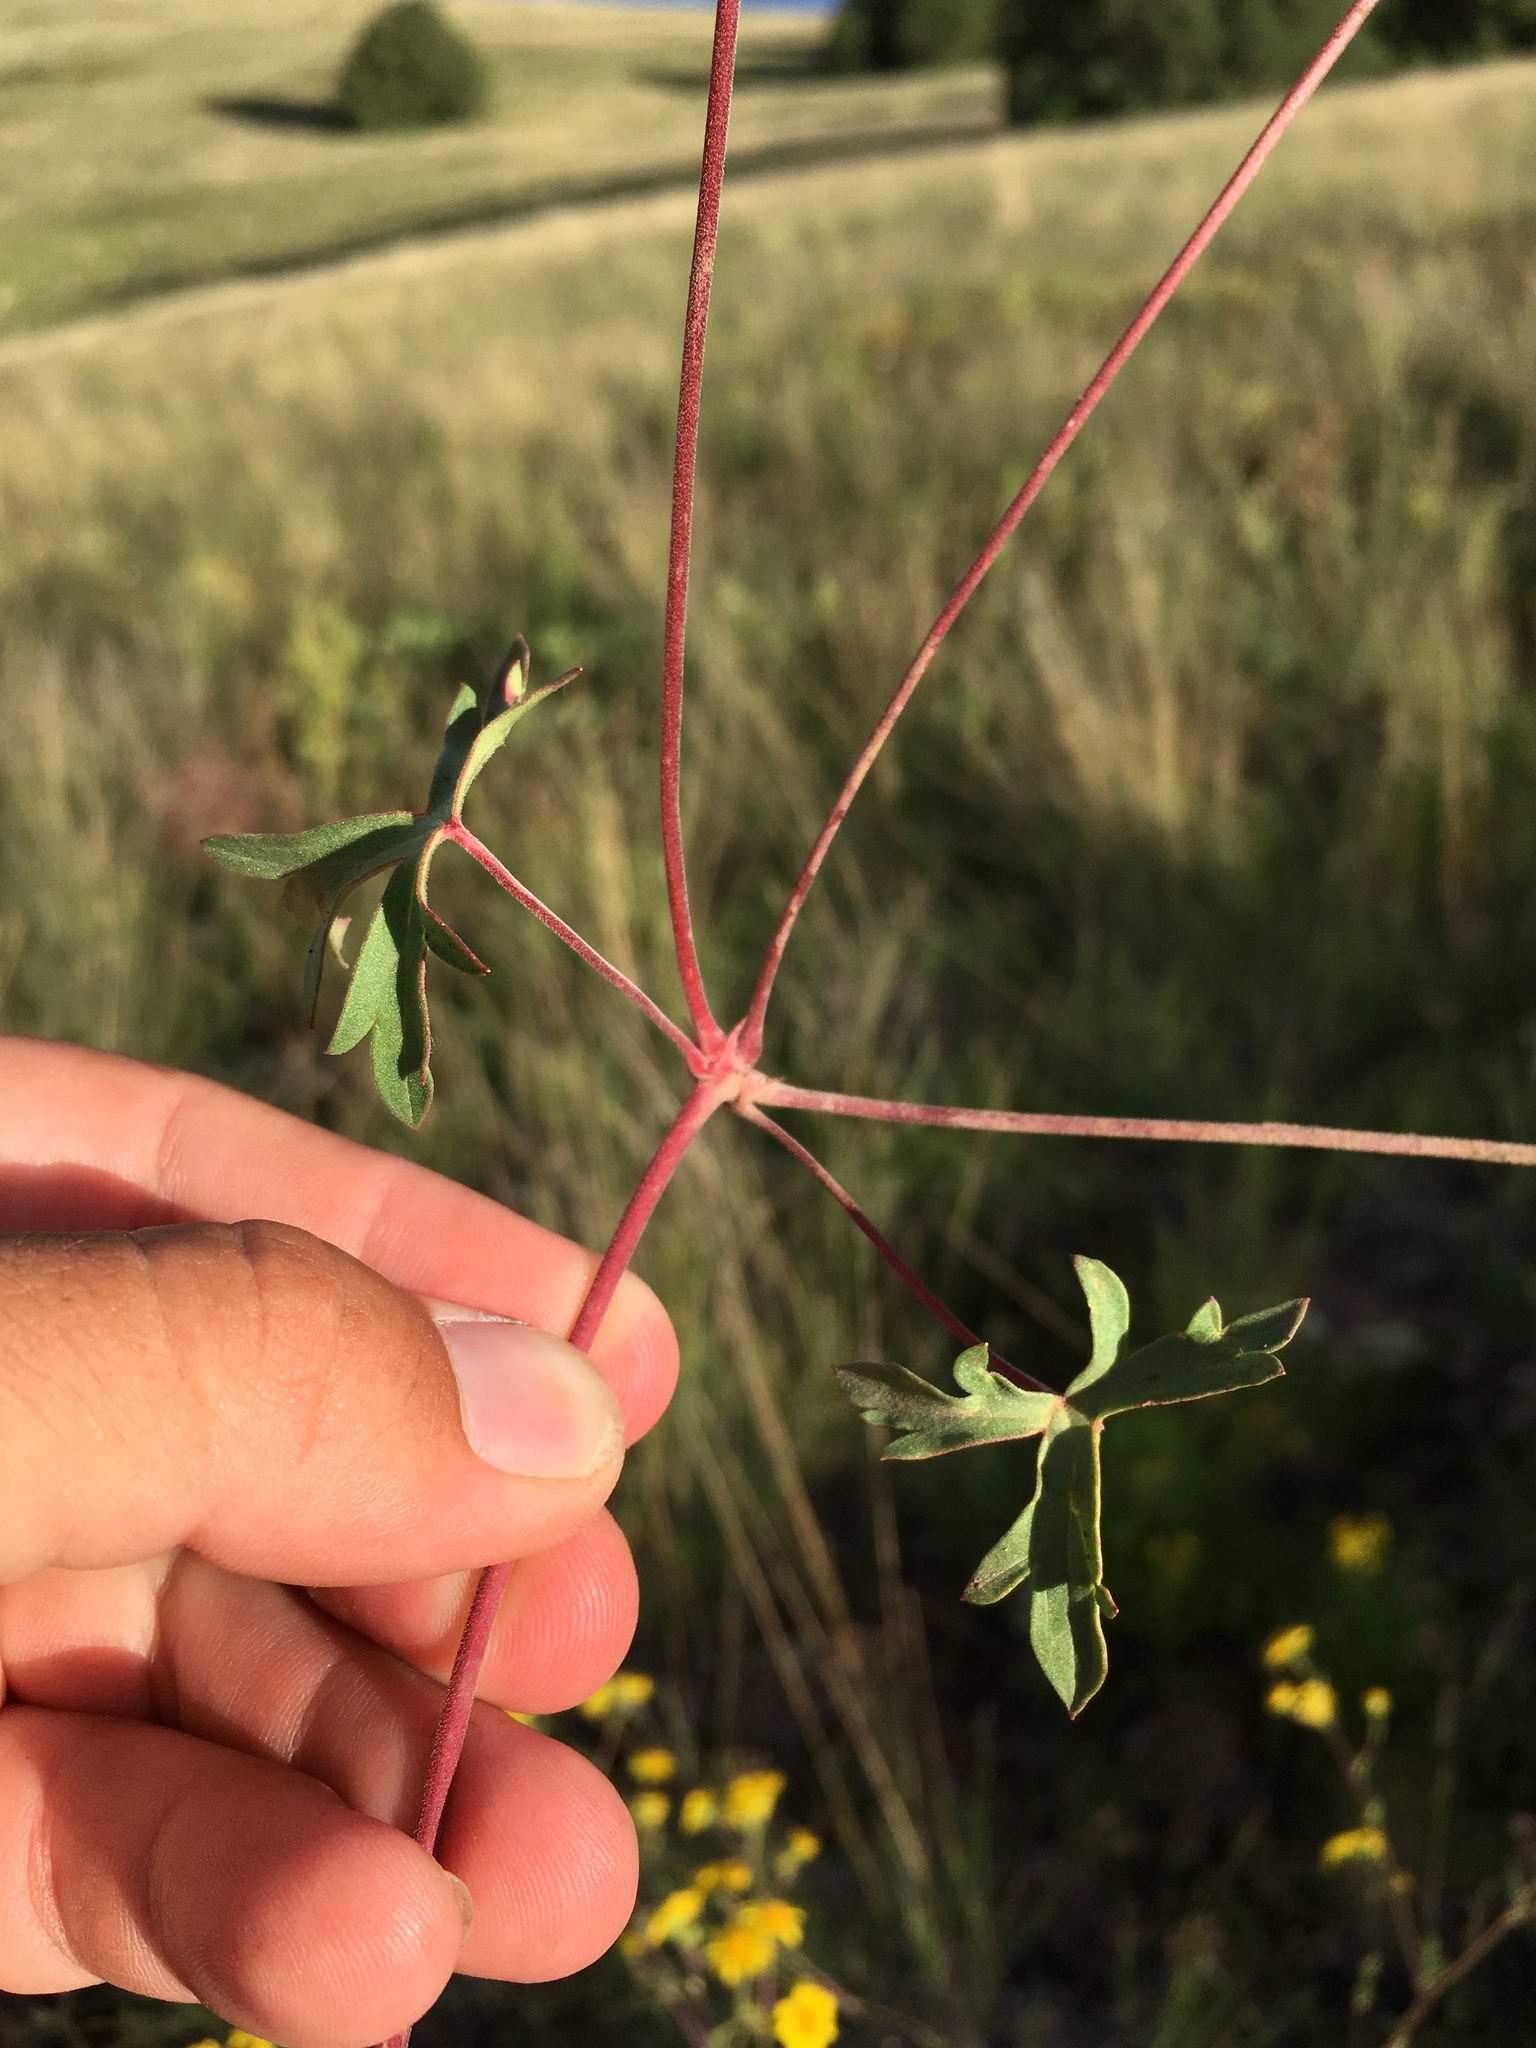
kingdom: Plantae
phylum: Tracheophyta
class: Magnoliopsida
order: Geraniales
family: Geraniaceae
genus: Geranium
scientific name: Geranium caespitosum
